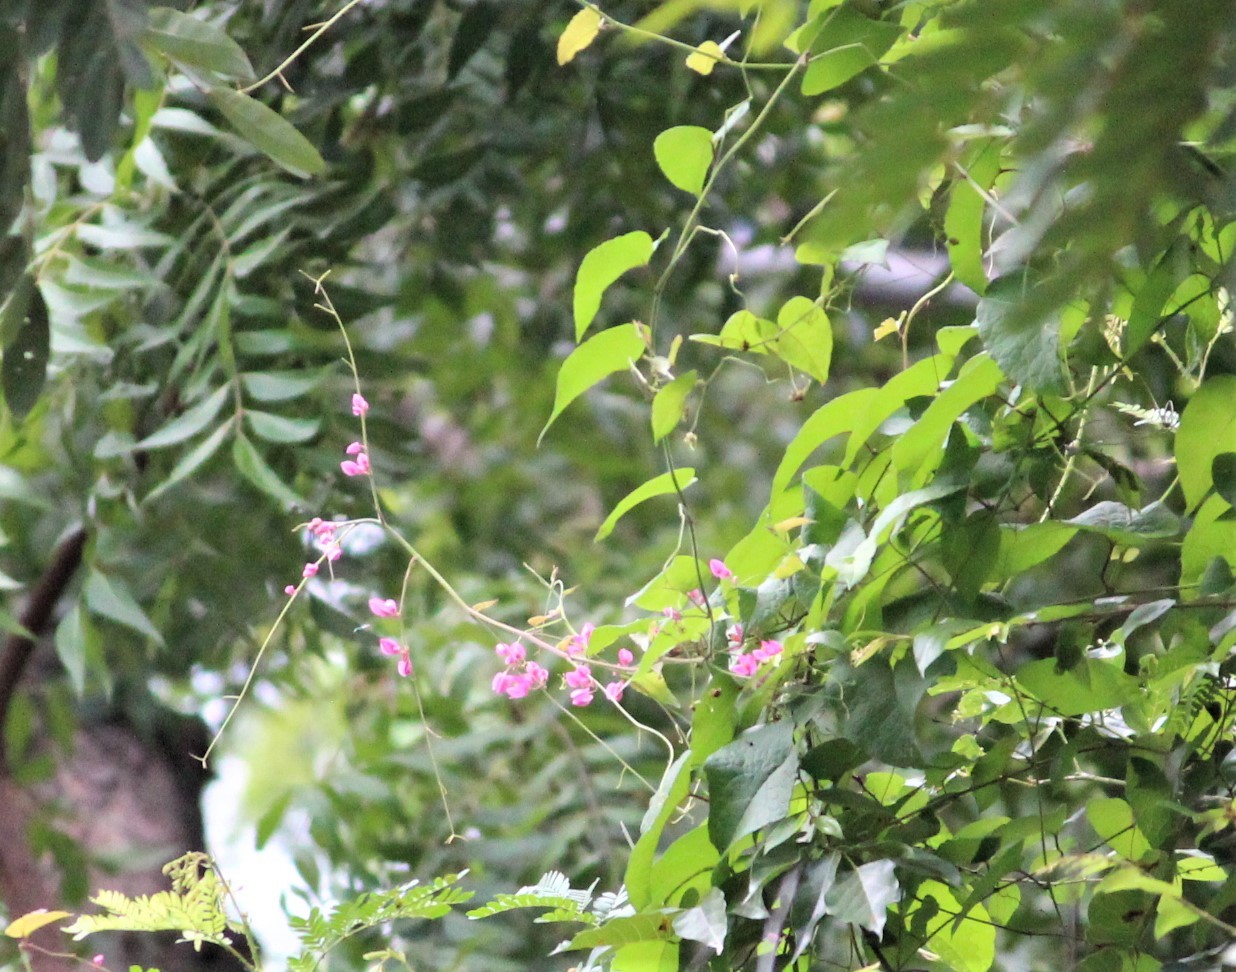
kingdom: Plantae
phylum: Tracheophyta
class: Magnoliopsida
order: Caryophyllales
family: Polygonaceae
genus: Antigonon
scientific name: Antigonon leptopus
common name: Coral vine
